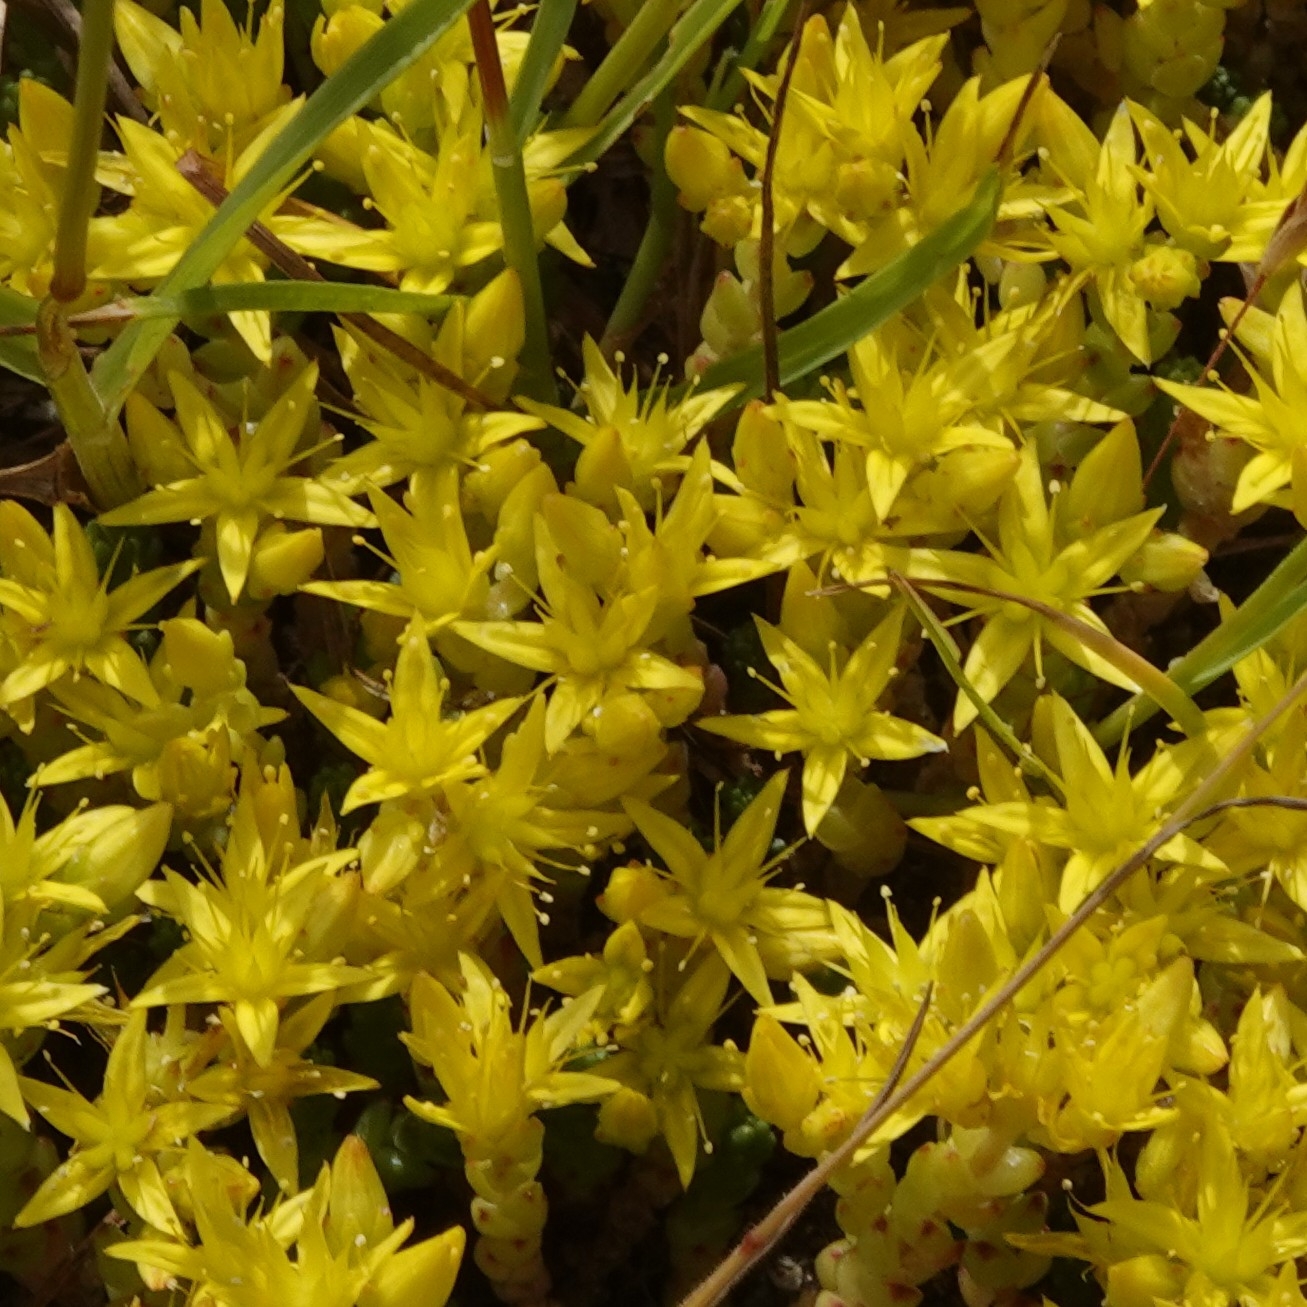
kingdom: Plantae
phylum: Tracheophyta
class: Magnoliopsida
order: Saxifragales
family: Crassulaceae
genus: Sedum
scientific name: Sedum acre
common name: Biting stonecrop
